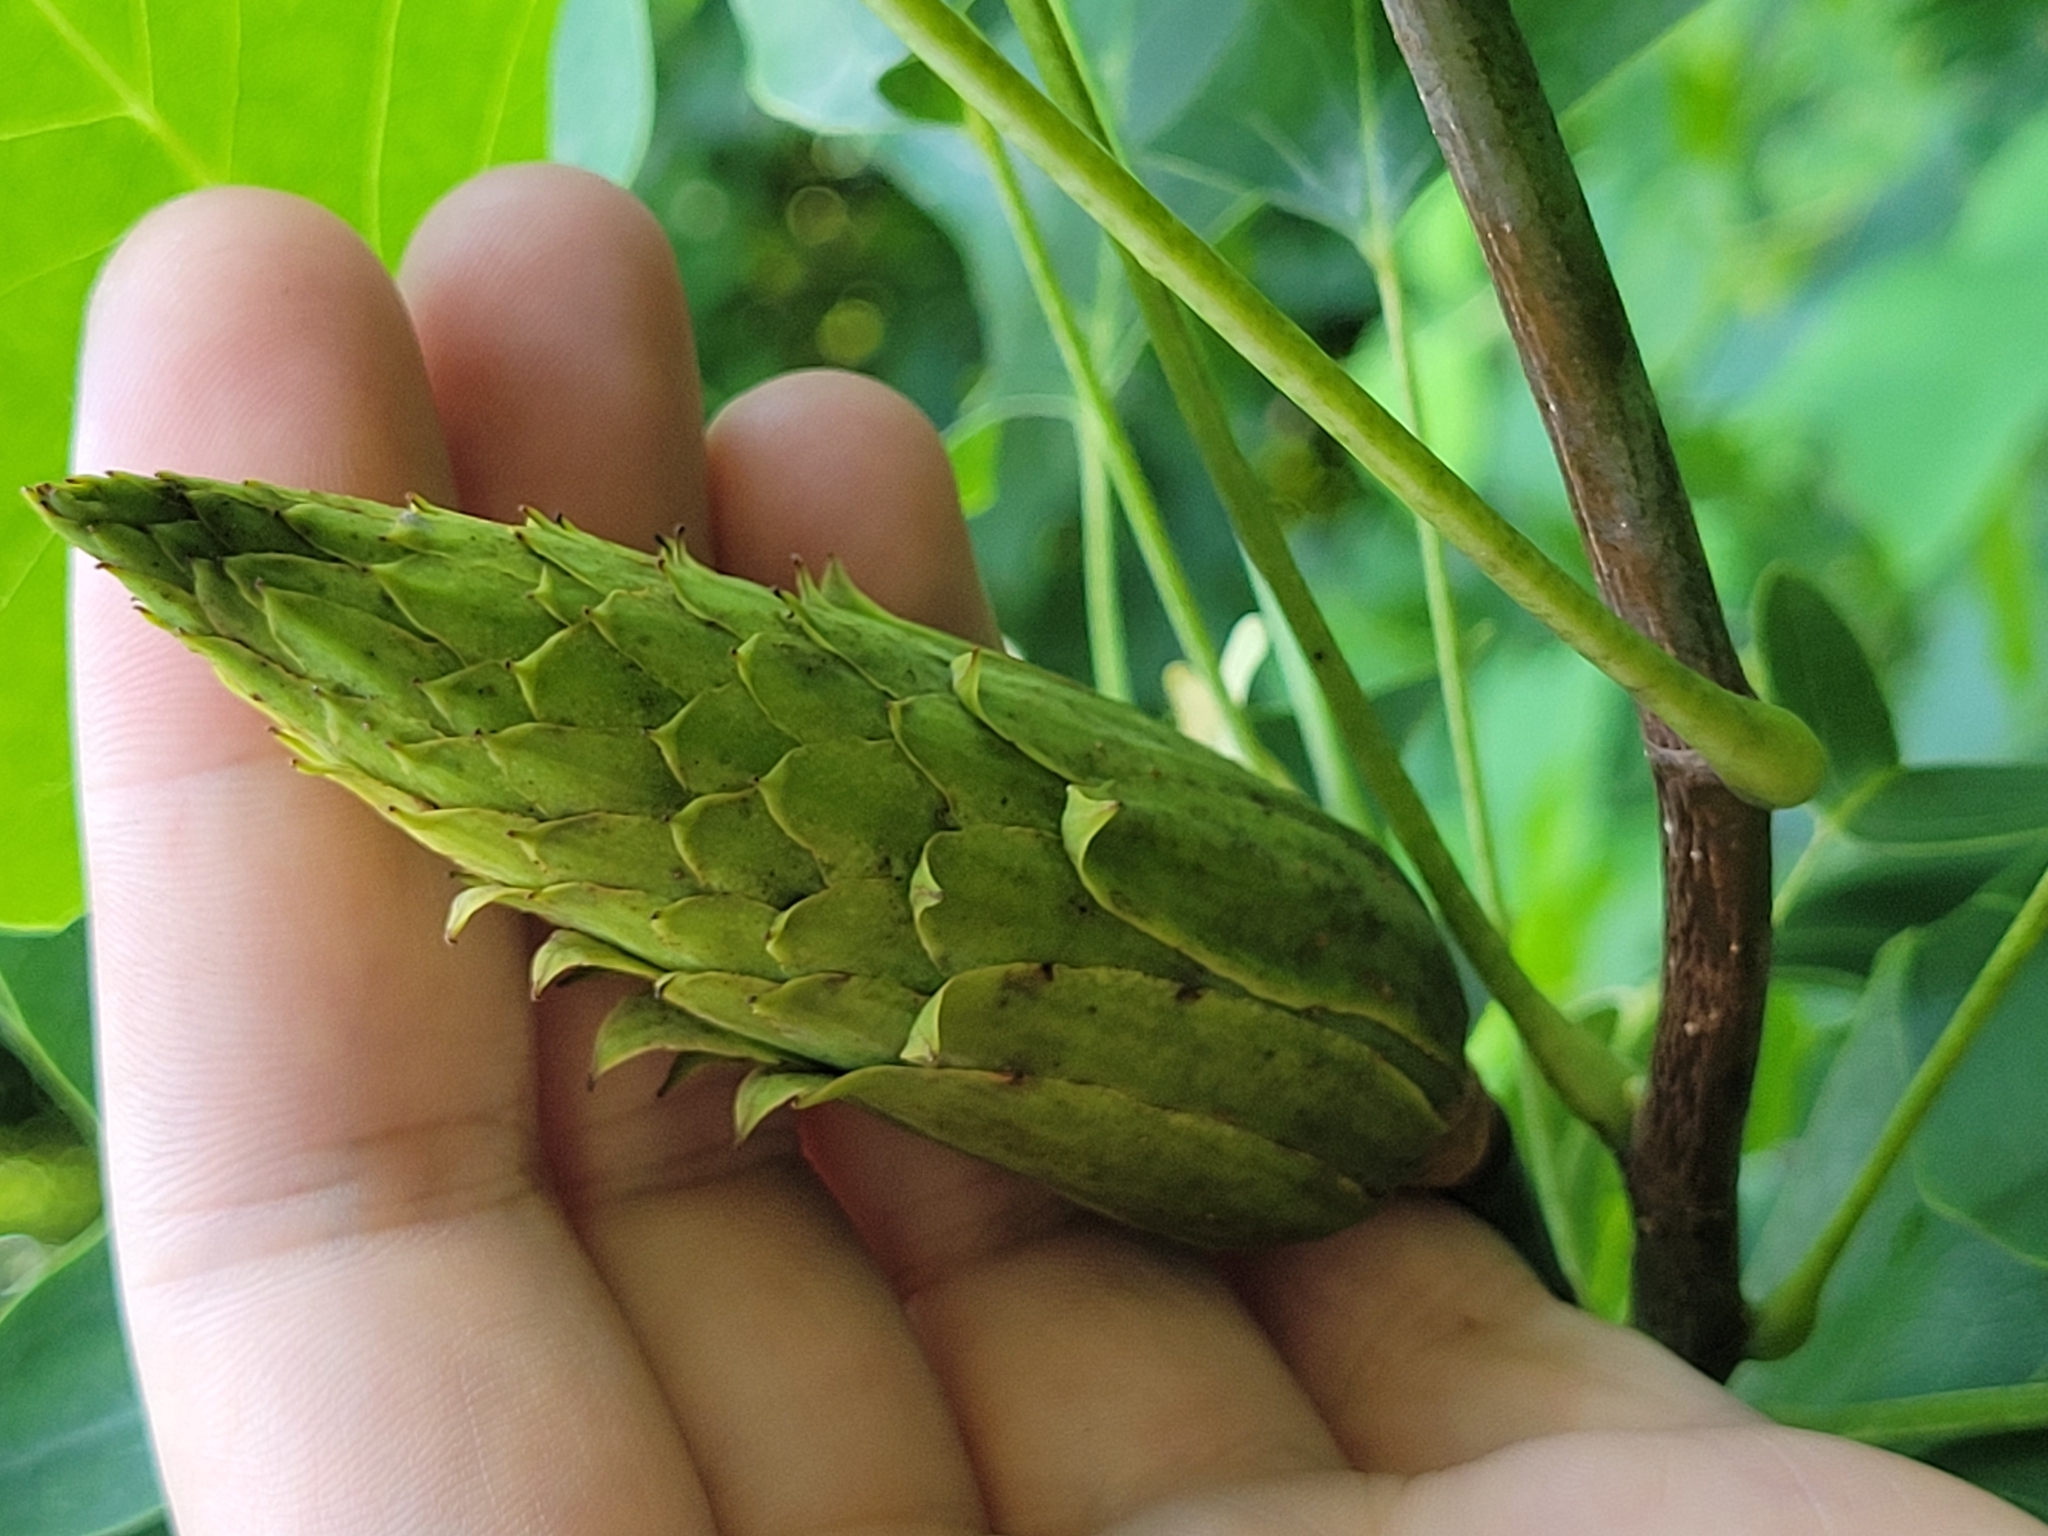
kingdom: Plantae
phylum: Tracheophyta
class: Magnoliopsida
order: Magnoliales
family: Magnoliaceae
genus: Liriodendron
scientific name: Liriodendron tulipifera
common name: Tulip tree
